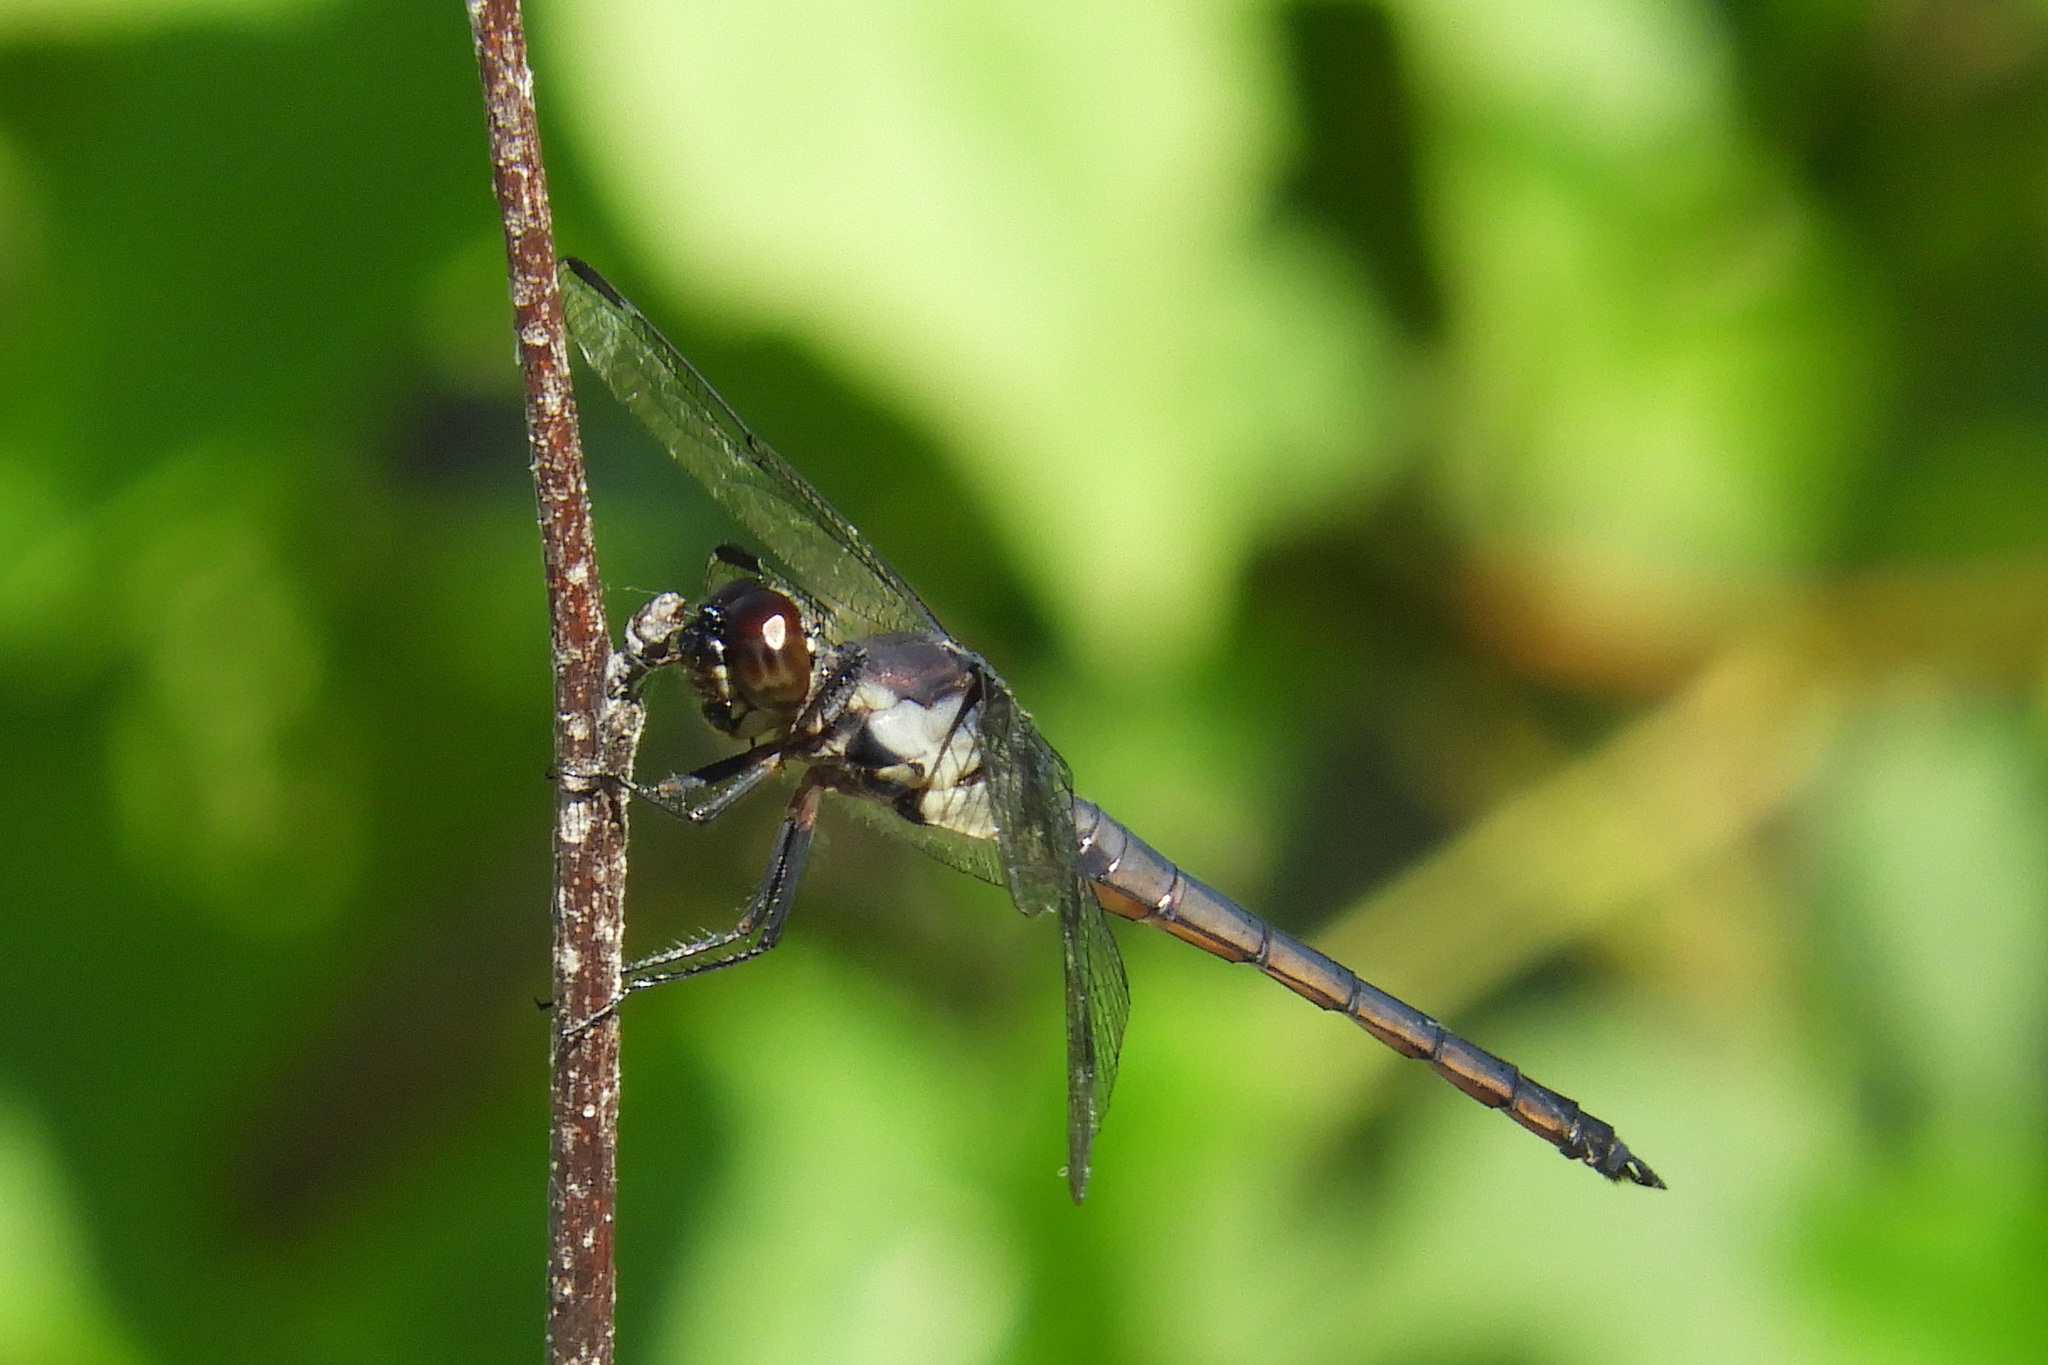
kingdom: Animalia
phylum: Arthropoda
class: Insecta
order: Odonata
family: Libellulidae
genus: Libellula
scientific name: Libellula incesta
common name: Slaty skimmer
